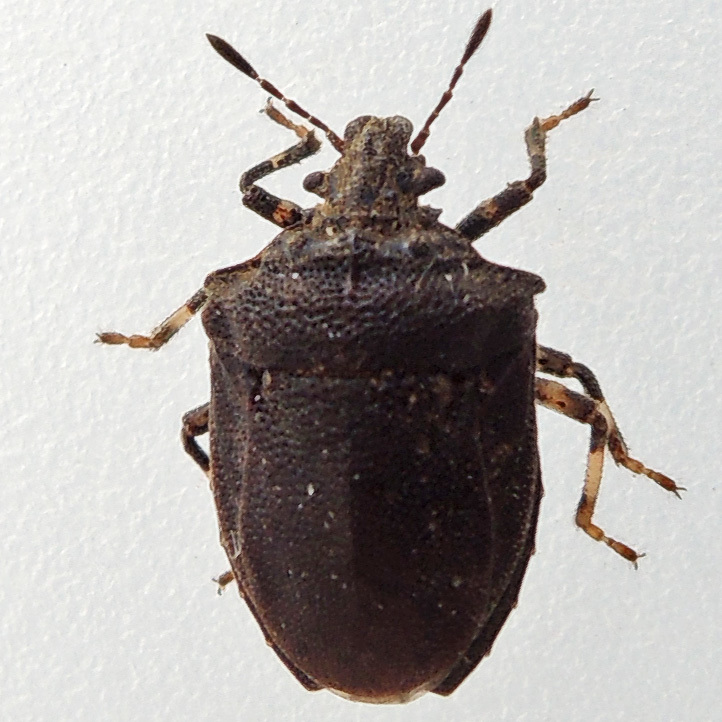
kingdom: Animalia
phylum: Arthropoda
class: Insecta
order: Hemiptera
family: Pentatomidae
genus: Amaurochrous
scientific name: Amaurochrous cinctipes
